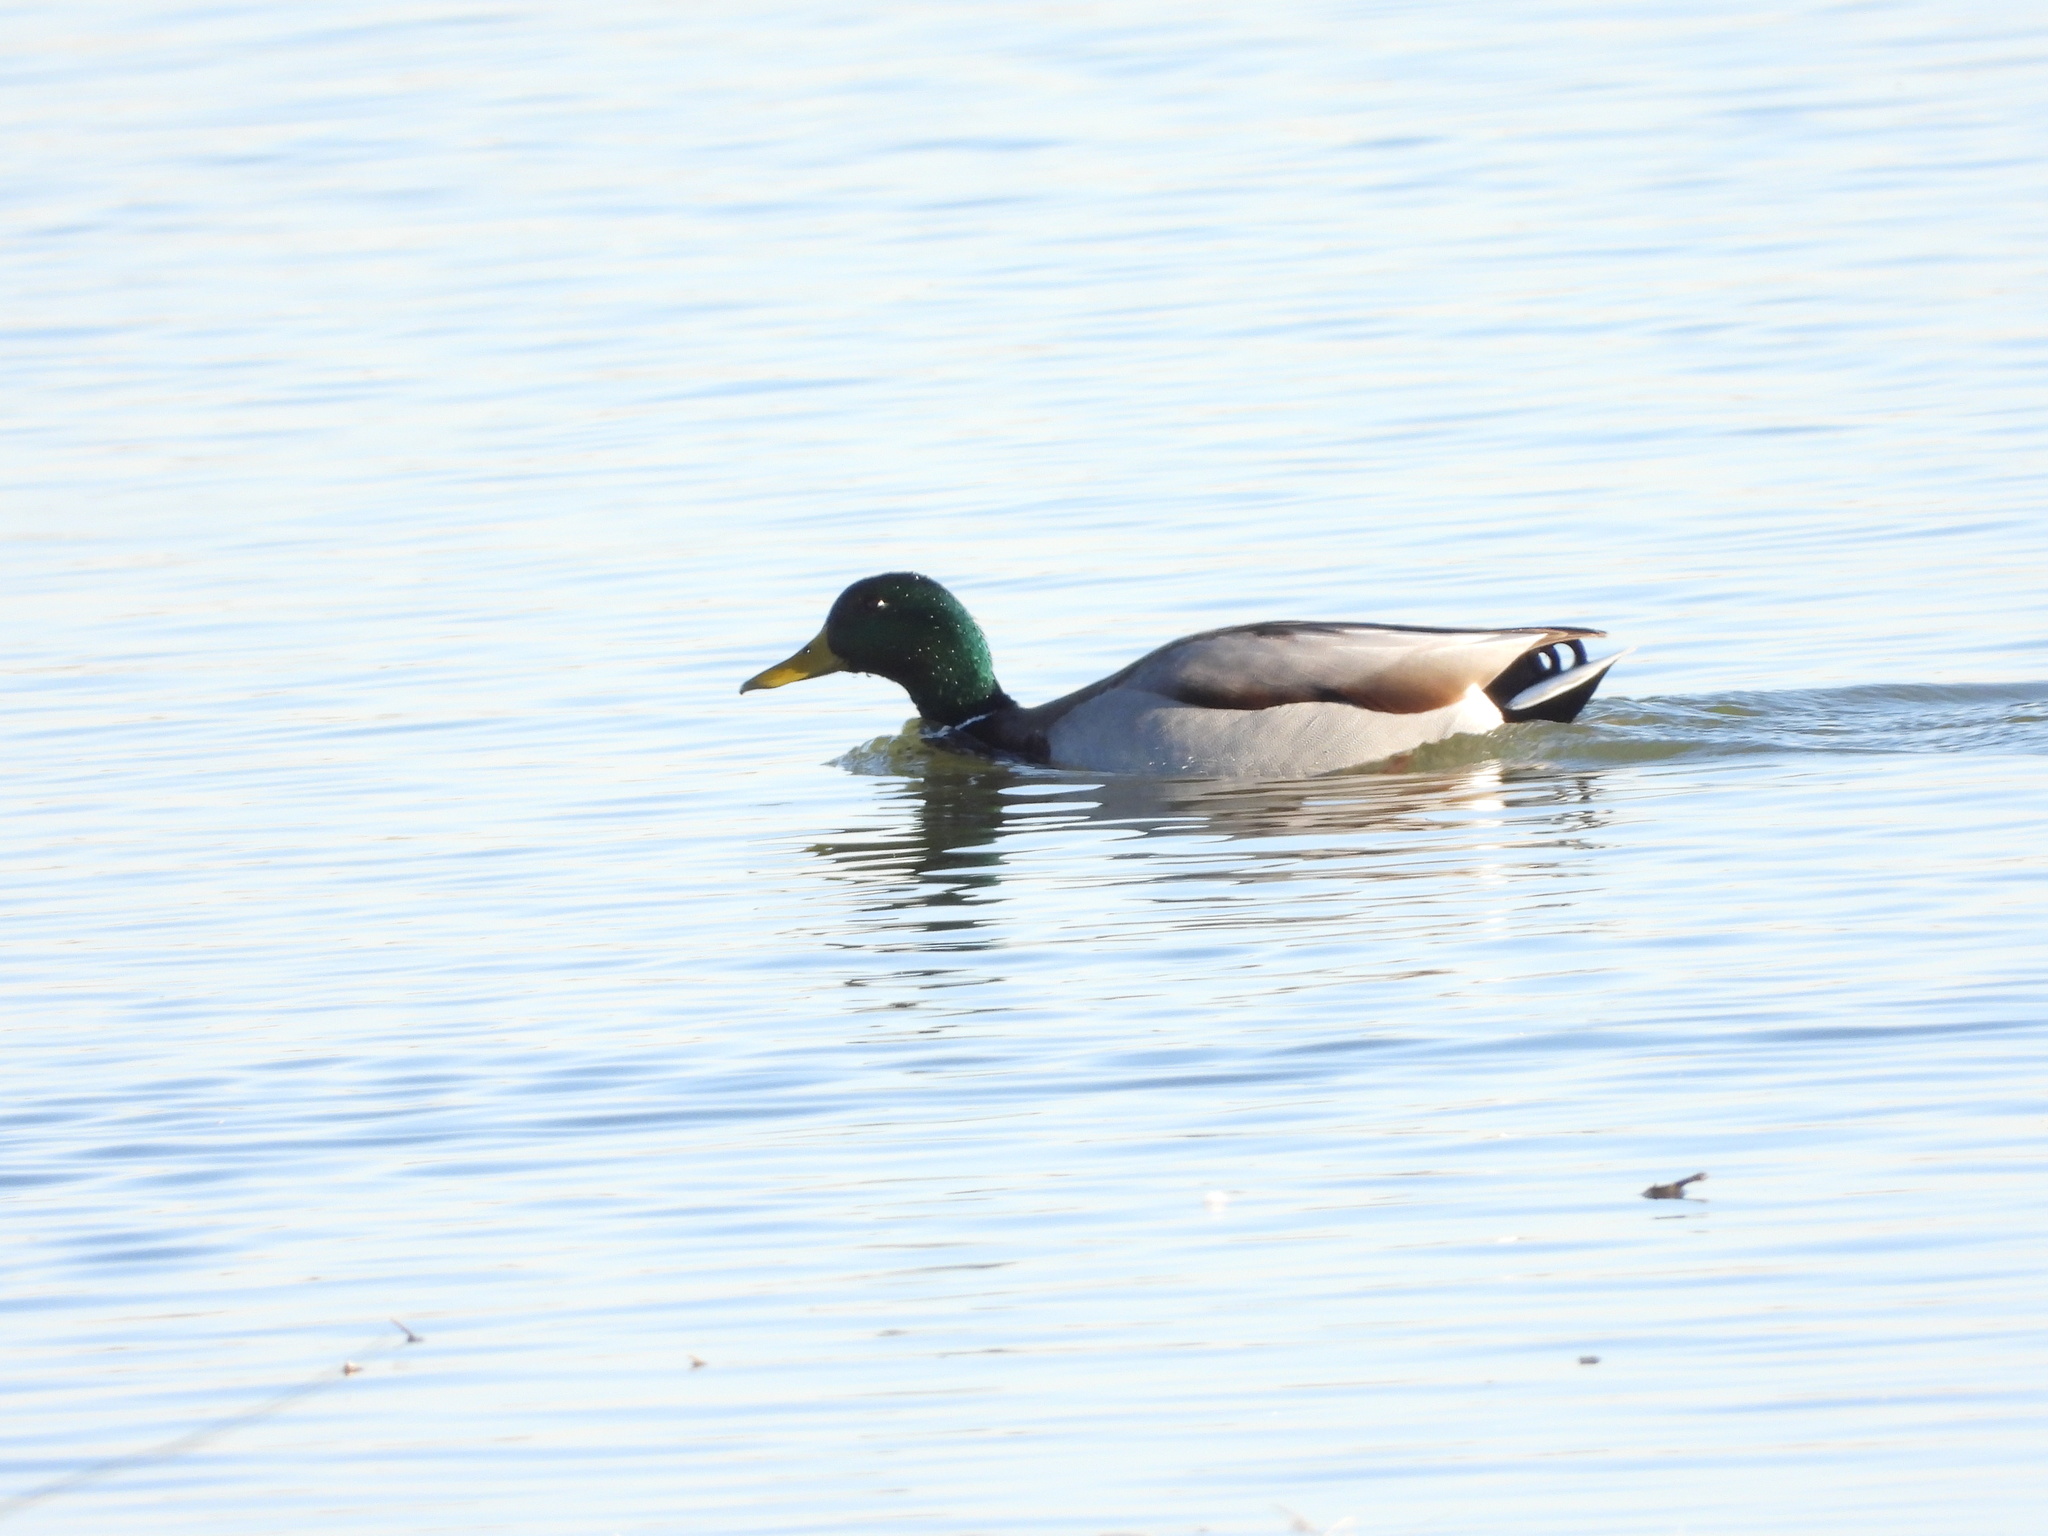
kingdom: Animalia
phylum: Chordata
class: Aves
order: Anseriformes
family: Anatidae
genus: Anas
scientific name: Anas platyrhynchos
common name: Mallard
